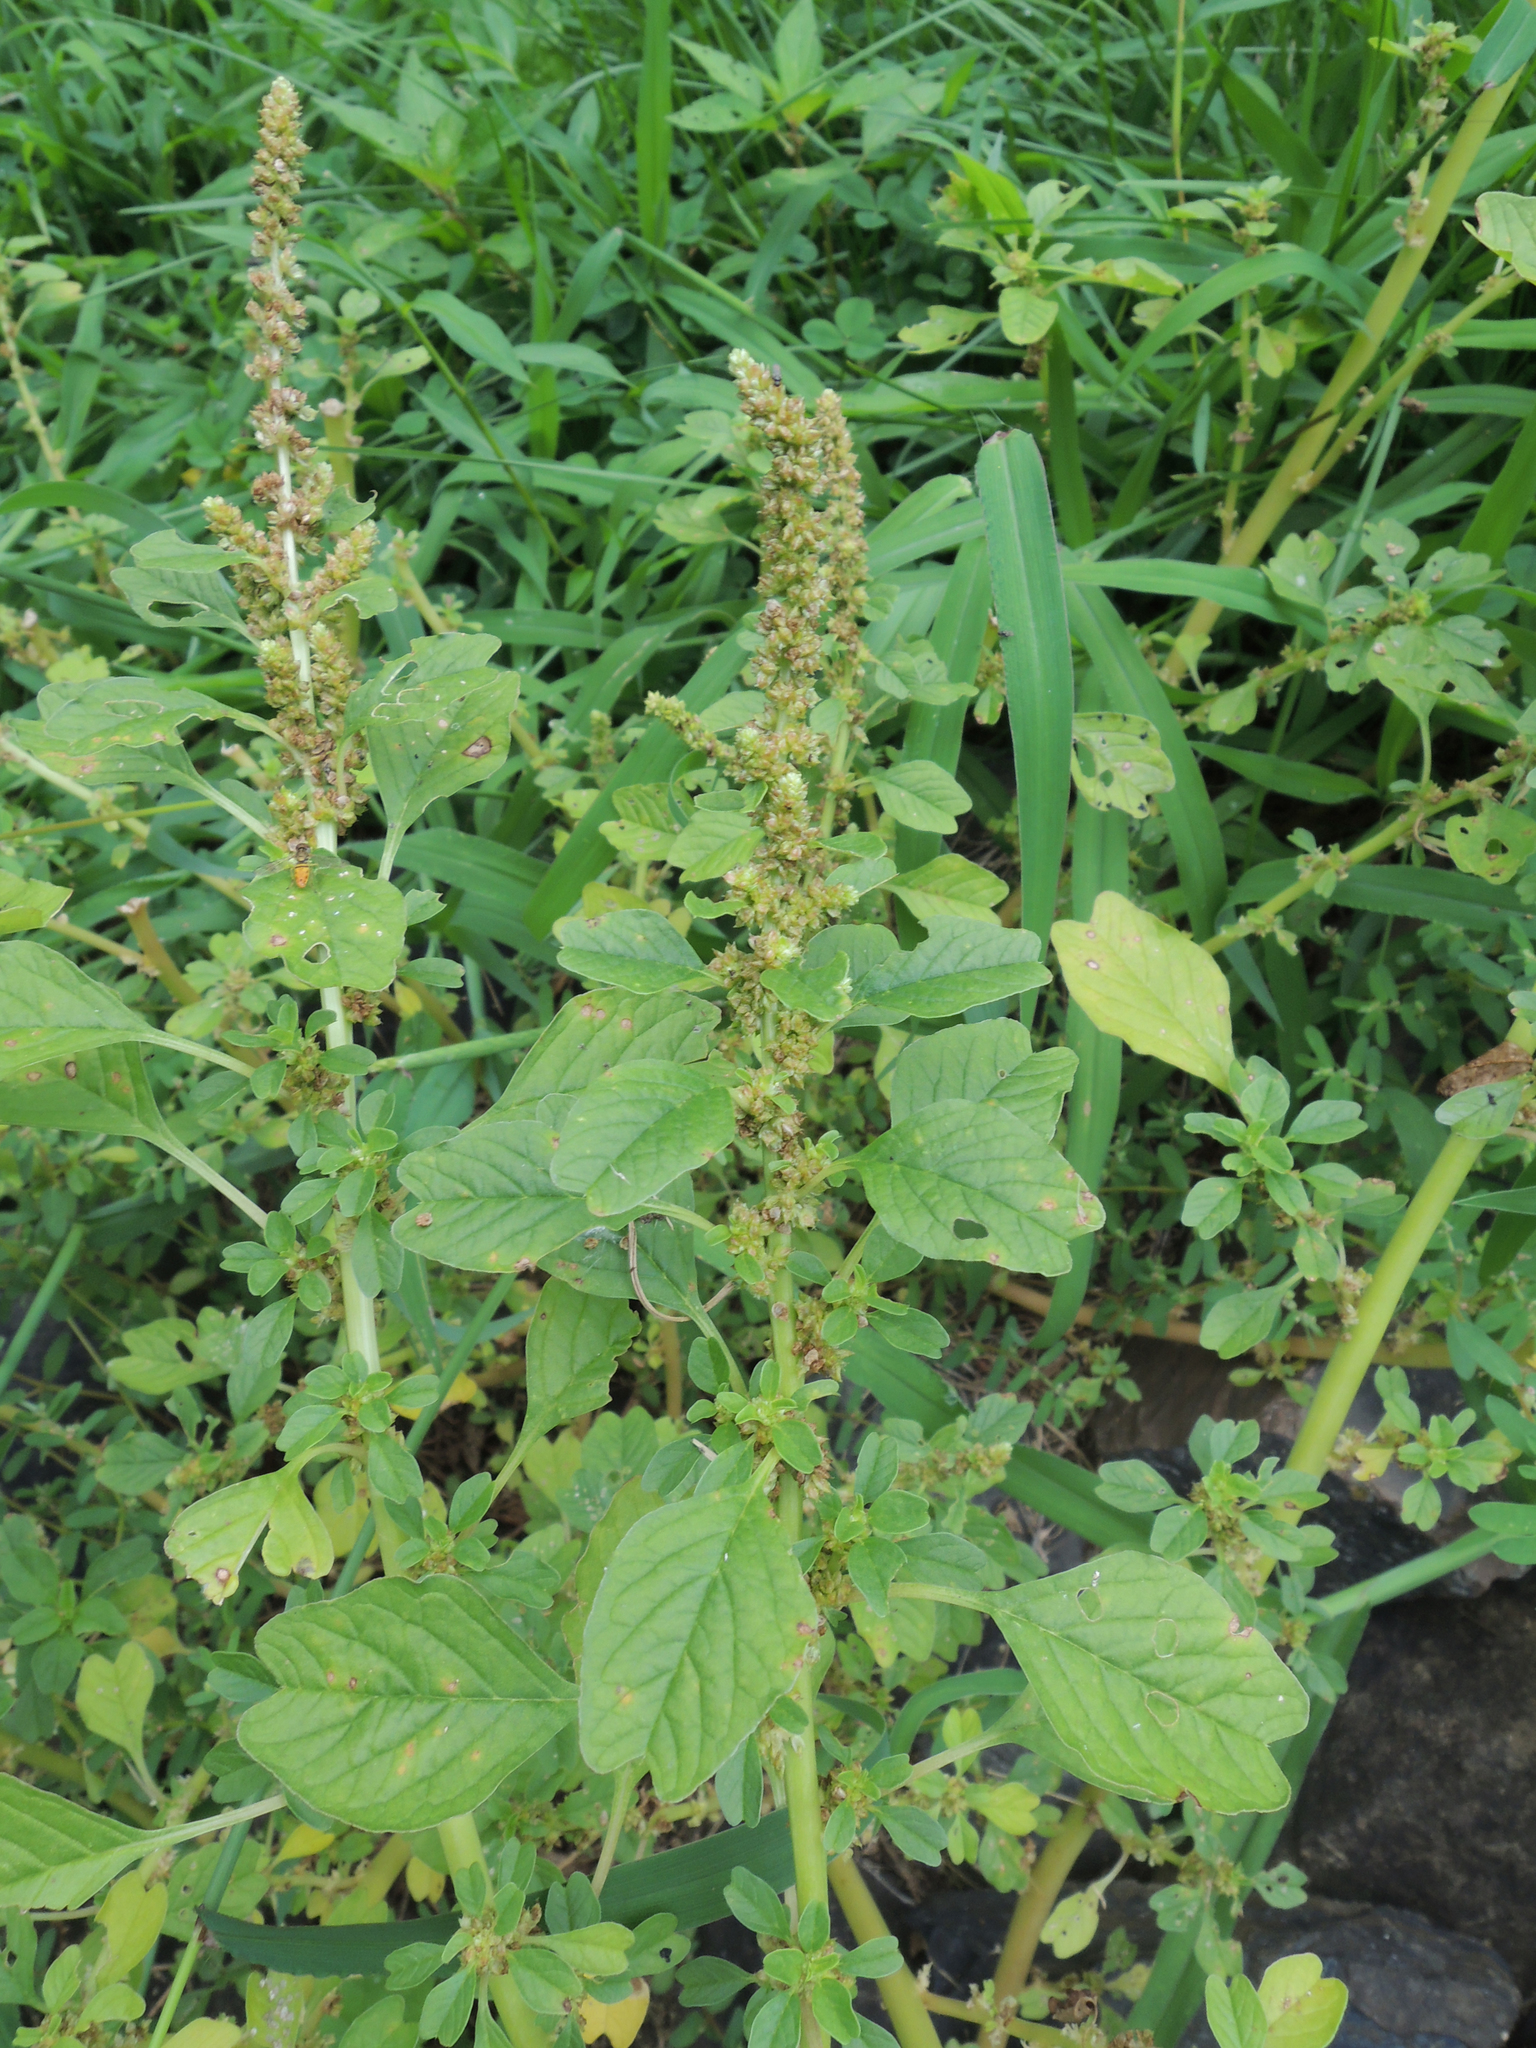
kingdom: Plantae
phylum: Tracheophyta
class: Magnoliopsida
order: Caryophyllales
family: Amaranthaceae
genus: Amaranthus
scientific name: Amaranthus blitum
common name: Purple amaranth
